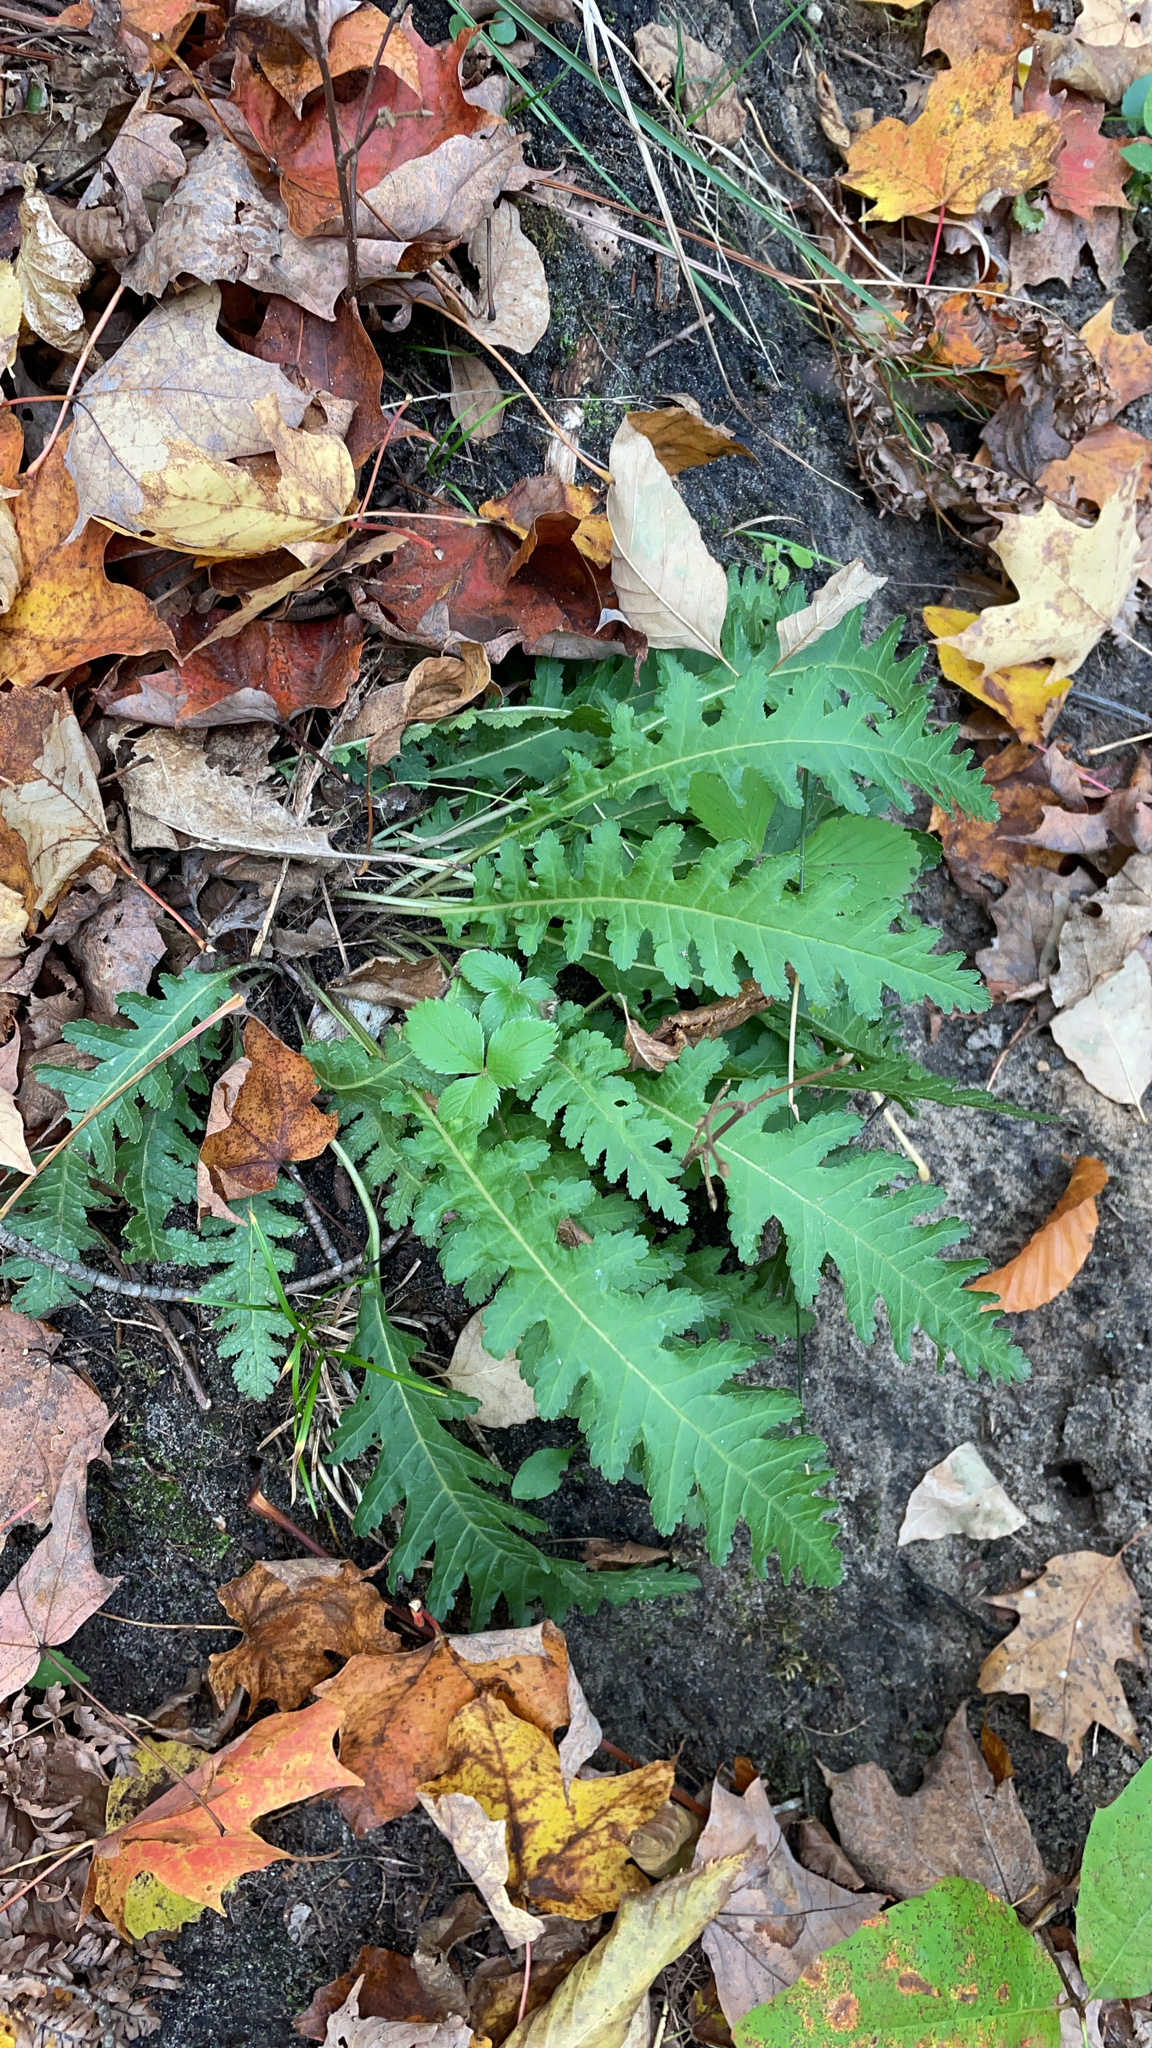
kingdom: Plantae
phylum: Tracheophyta
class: Magnoliopsida
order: Lamiales
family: Orobanchaceae
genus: Pedicularis
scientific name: Pedicularis canadensis
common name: Early lousewort
